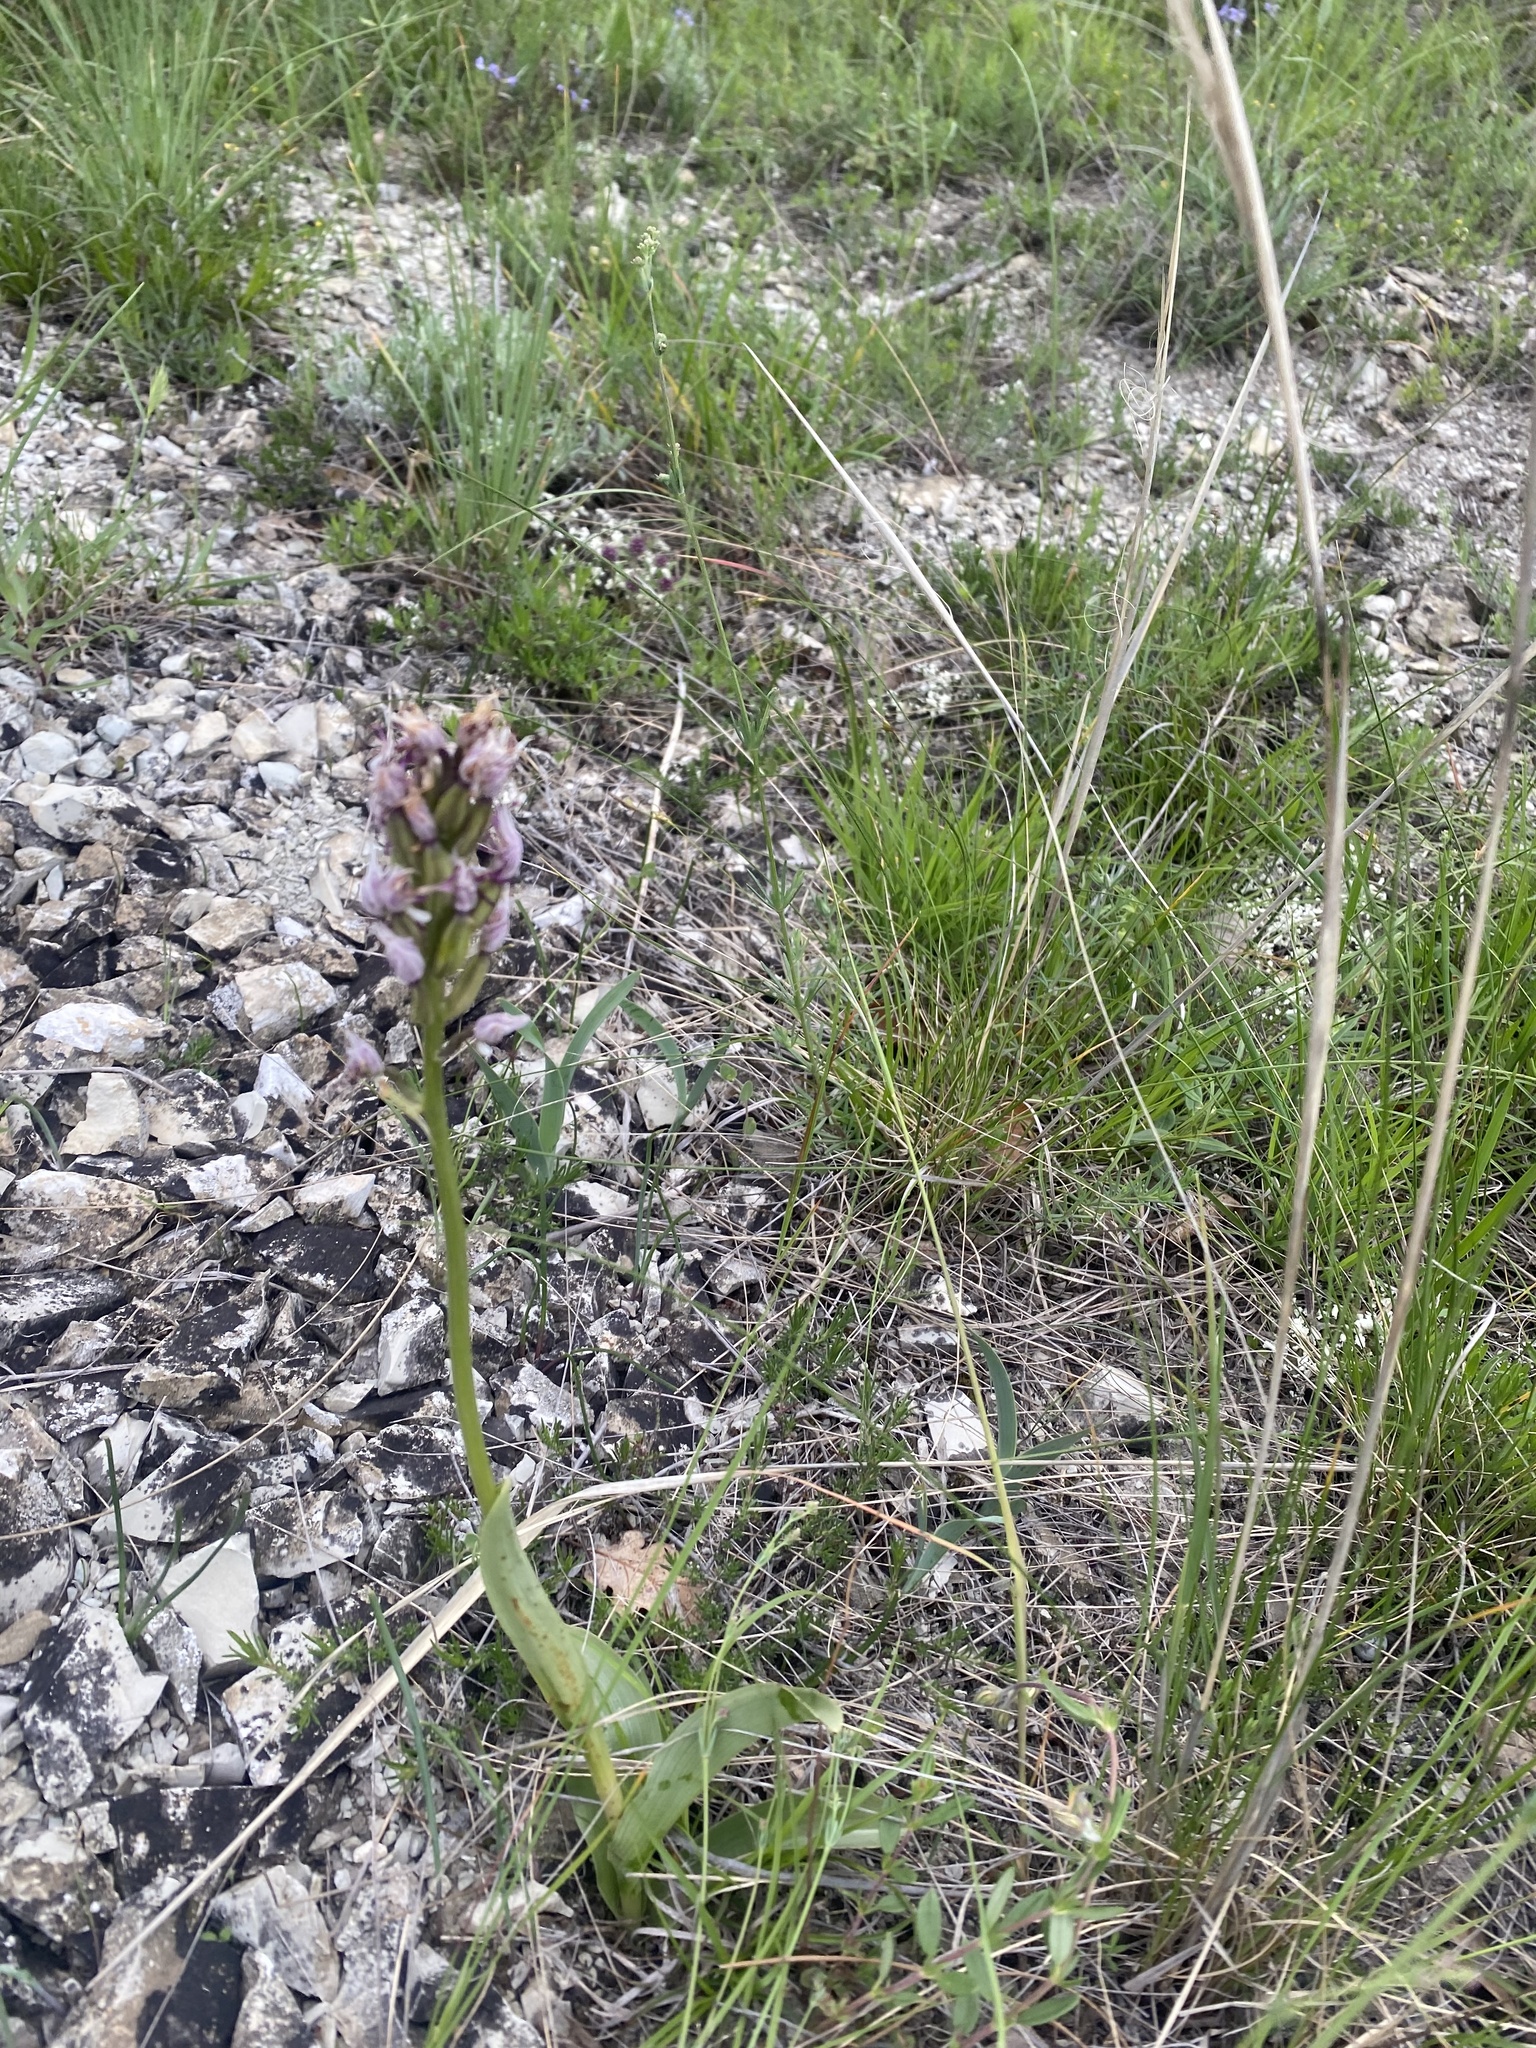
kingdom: Plantae
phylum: Tracheophyta
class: Liliopsida
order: Asparagales
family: Orchidaceae
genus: Orchis
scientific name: Orchis simia
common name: Monkey orchid
